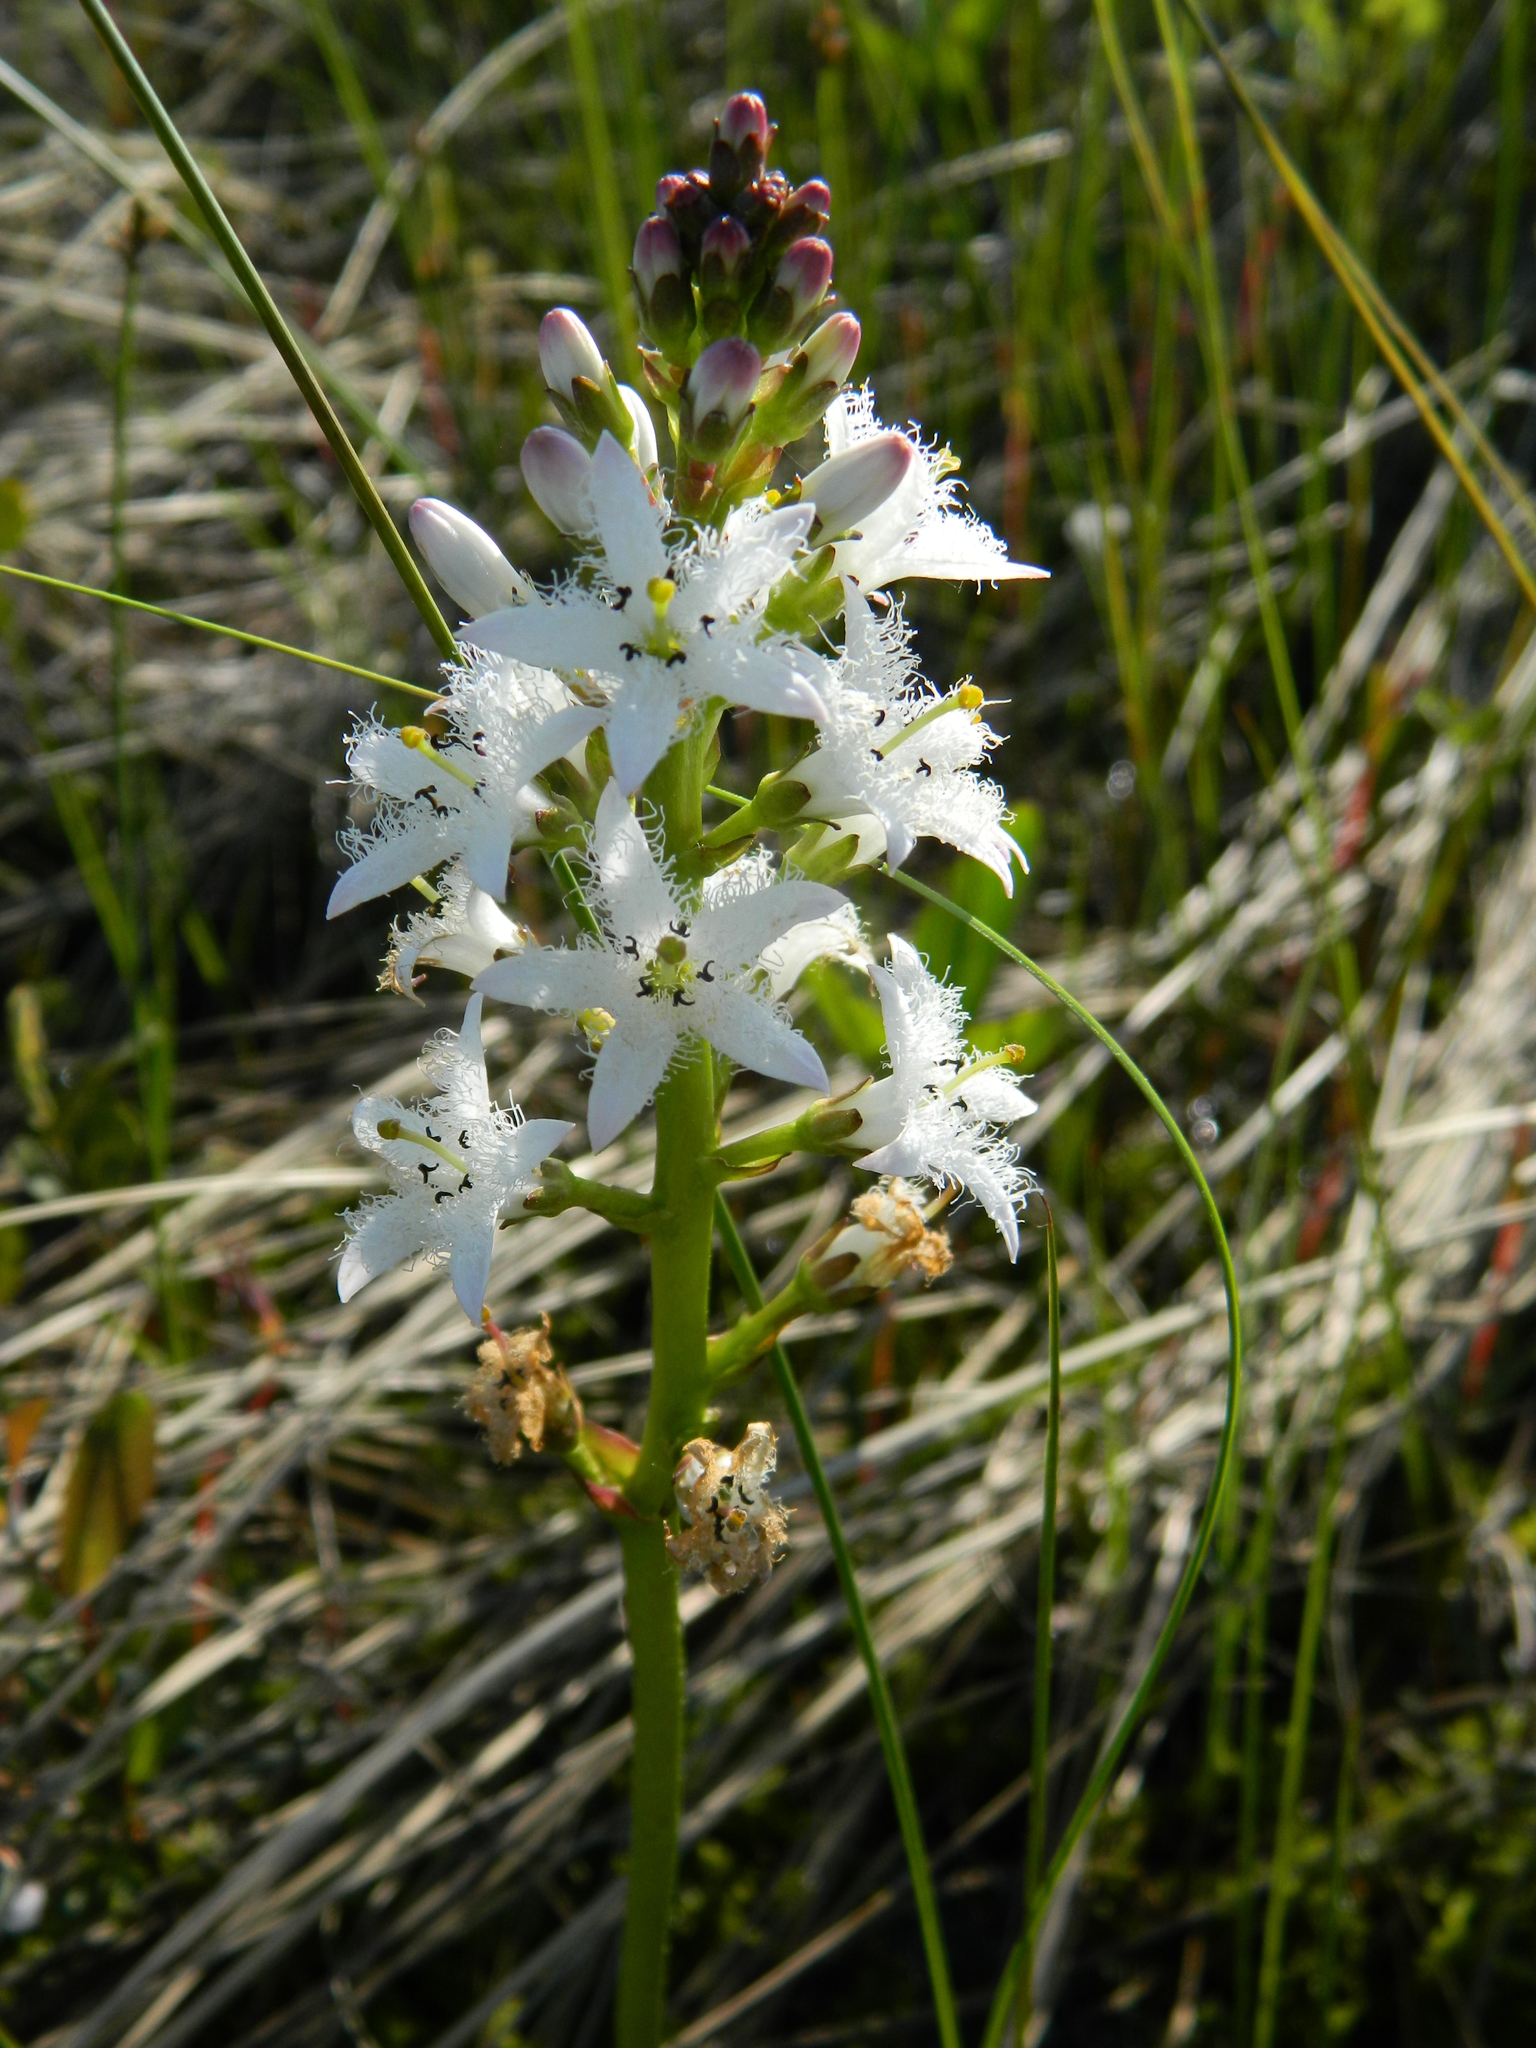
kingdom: Plantae
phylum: Tracheophyta
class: Magnoliopsida
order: Asterales
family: Menyanthaceae
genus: Menyanthes
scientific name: Menyanthes trifoliata
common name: Bogbean
